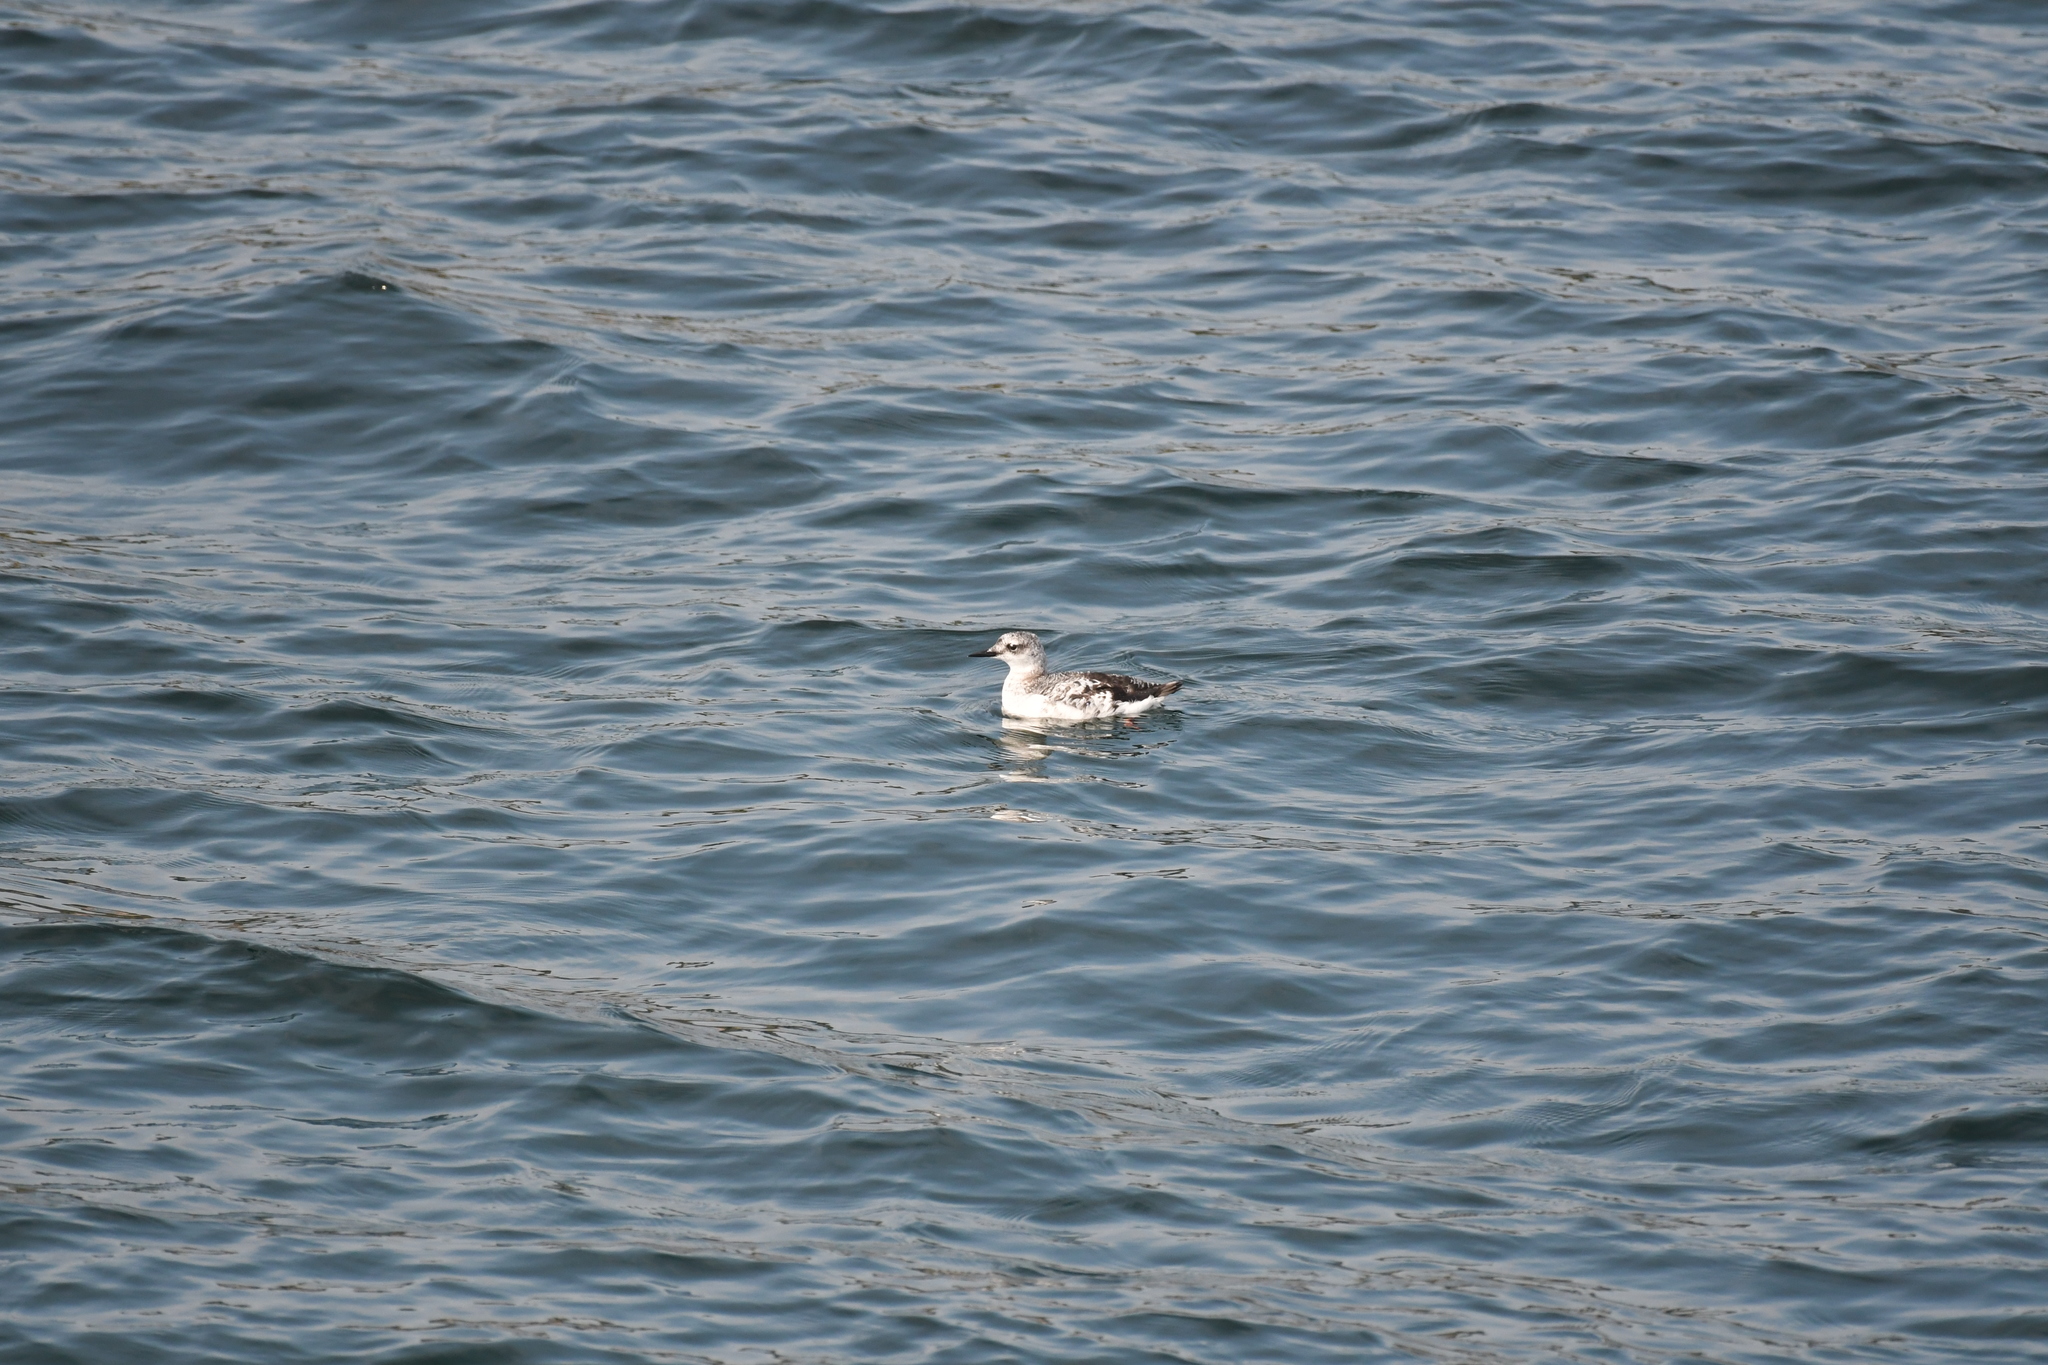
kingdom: Animalia
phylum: Chordata
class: Aves
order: Charadriiformes
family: Alcidae
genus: Cepphus
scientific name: Cepphus grylle
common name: Black guillemot
